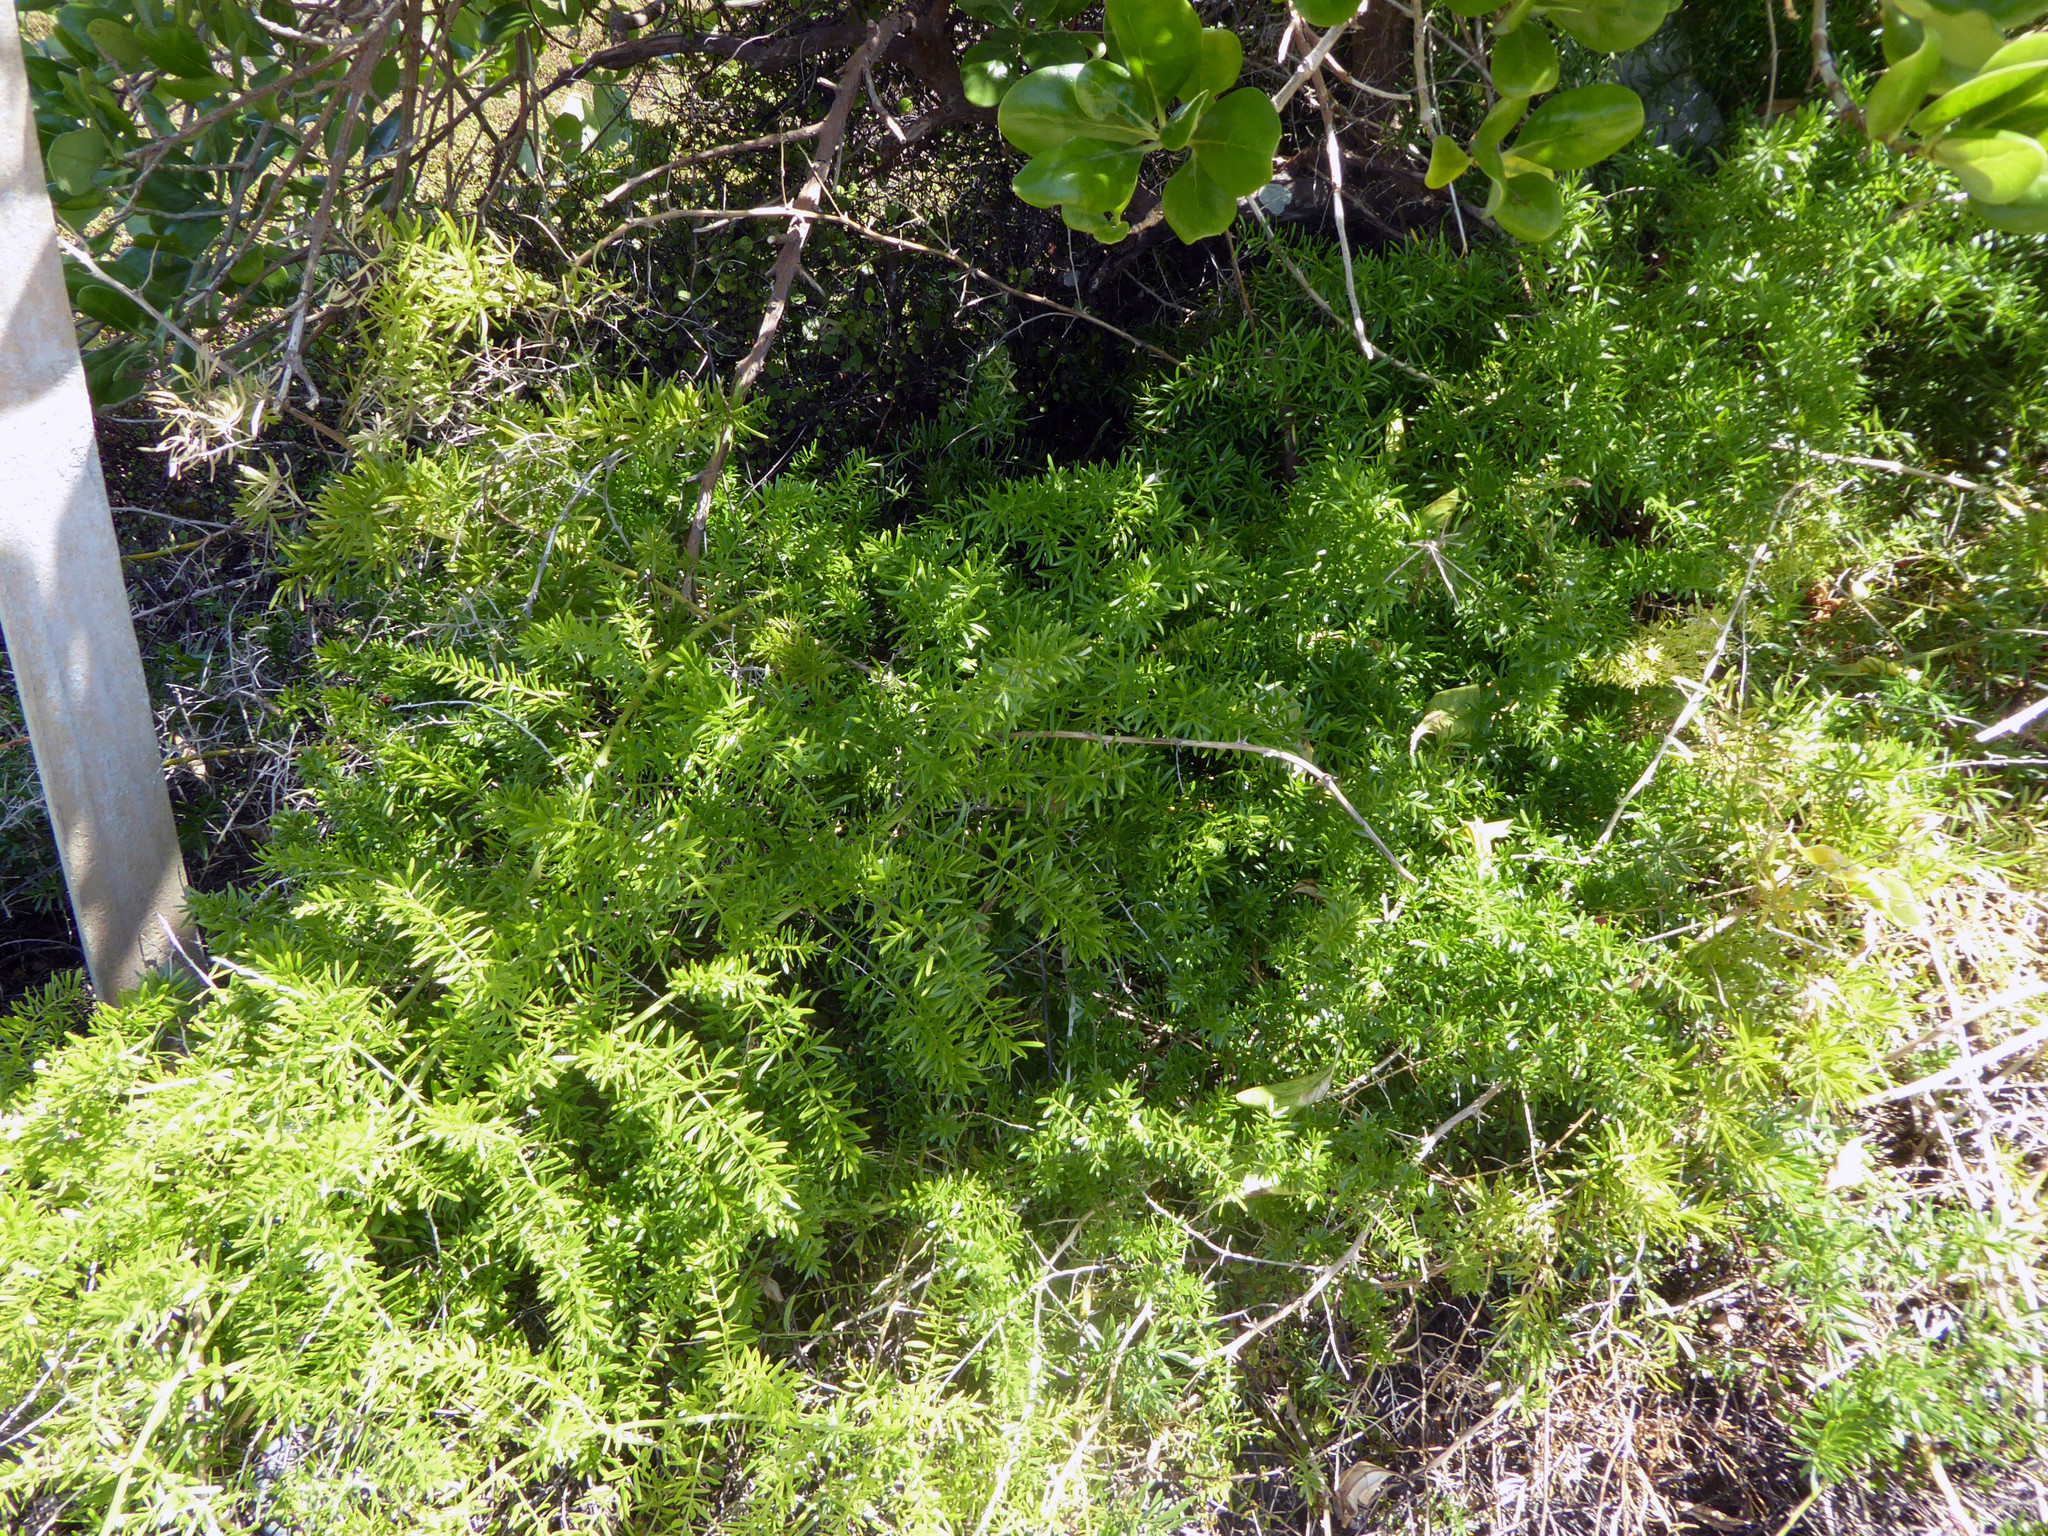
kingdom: Plantae
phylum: Tracheophyta
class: Liliopsida
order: Asparagales
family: Asparagaceae
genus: Asparagus
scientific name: Asparagus aethiopicus
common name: Sprenger's asparagus fern
